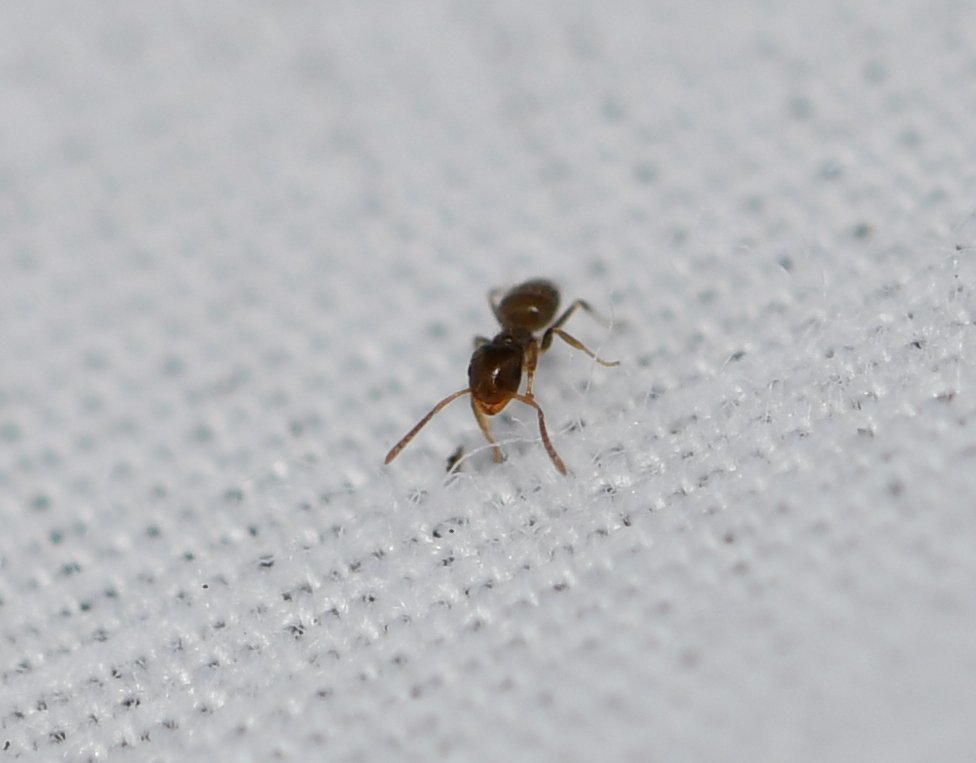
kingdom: Animalia
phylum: Arthropoda
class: Insecta
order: Hymenoptera
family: Formicidae
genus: Brachymyrmex
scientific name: Brachymyrmex obscurior
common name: Obscure rover ant
